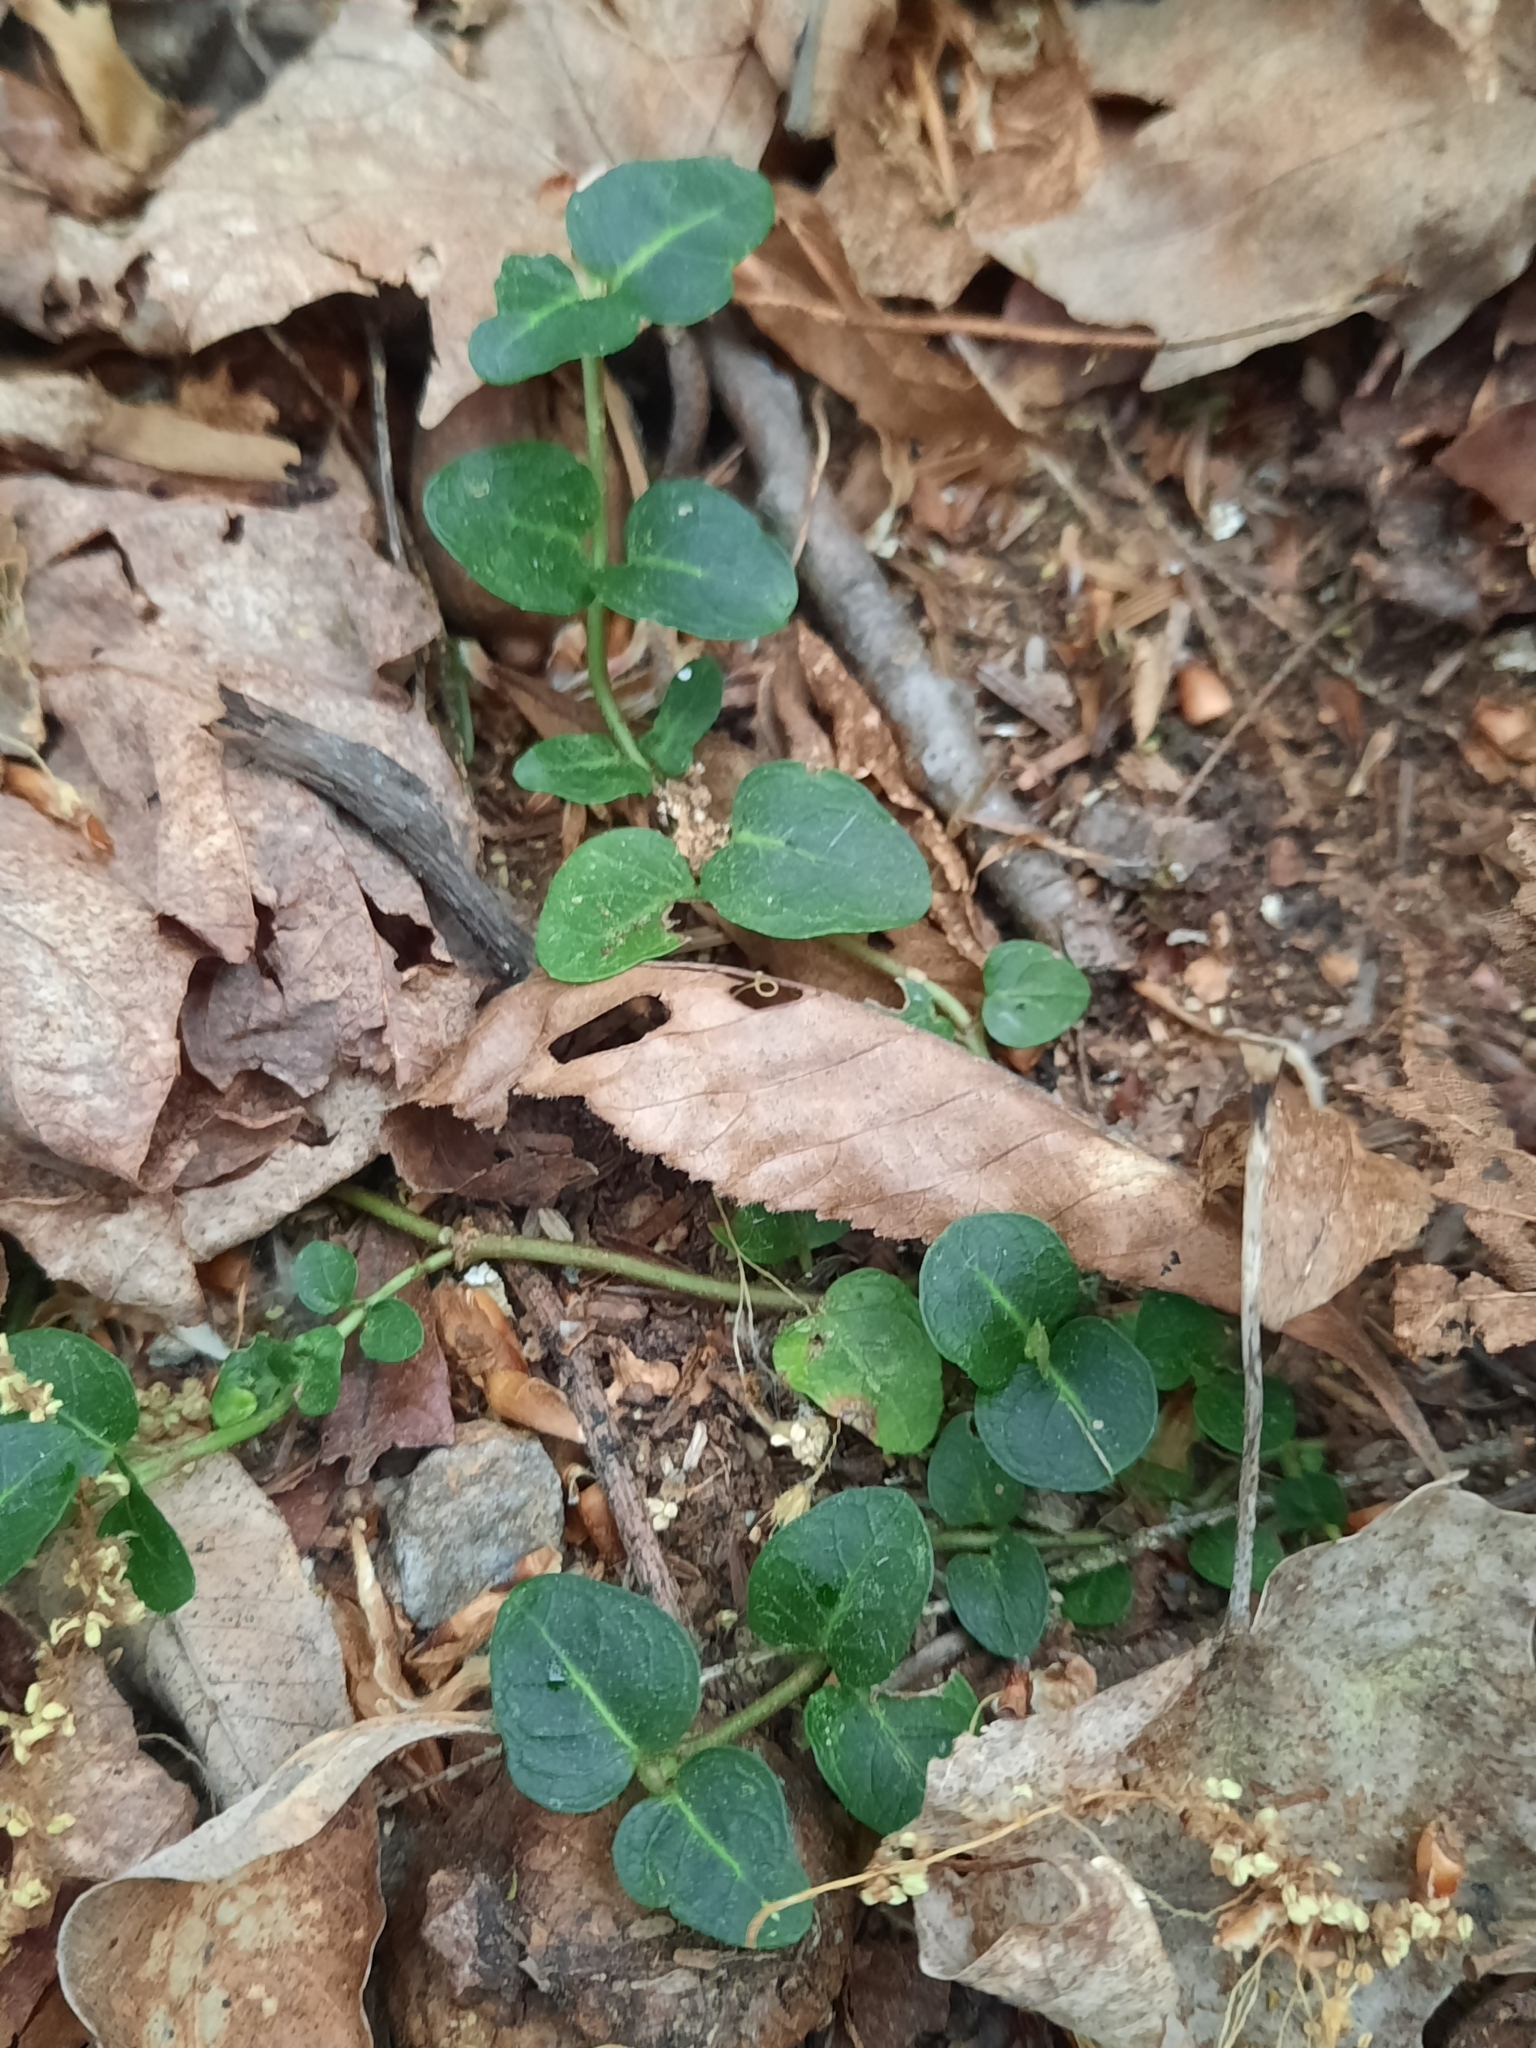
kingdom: Plantae
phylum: Tracheophyta
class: Magnoliopsida
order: Gentianales
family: Rubiaceae
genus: Mitchella
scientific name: Mitchella repens
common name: Partridge-berry
